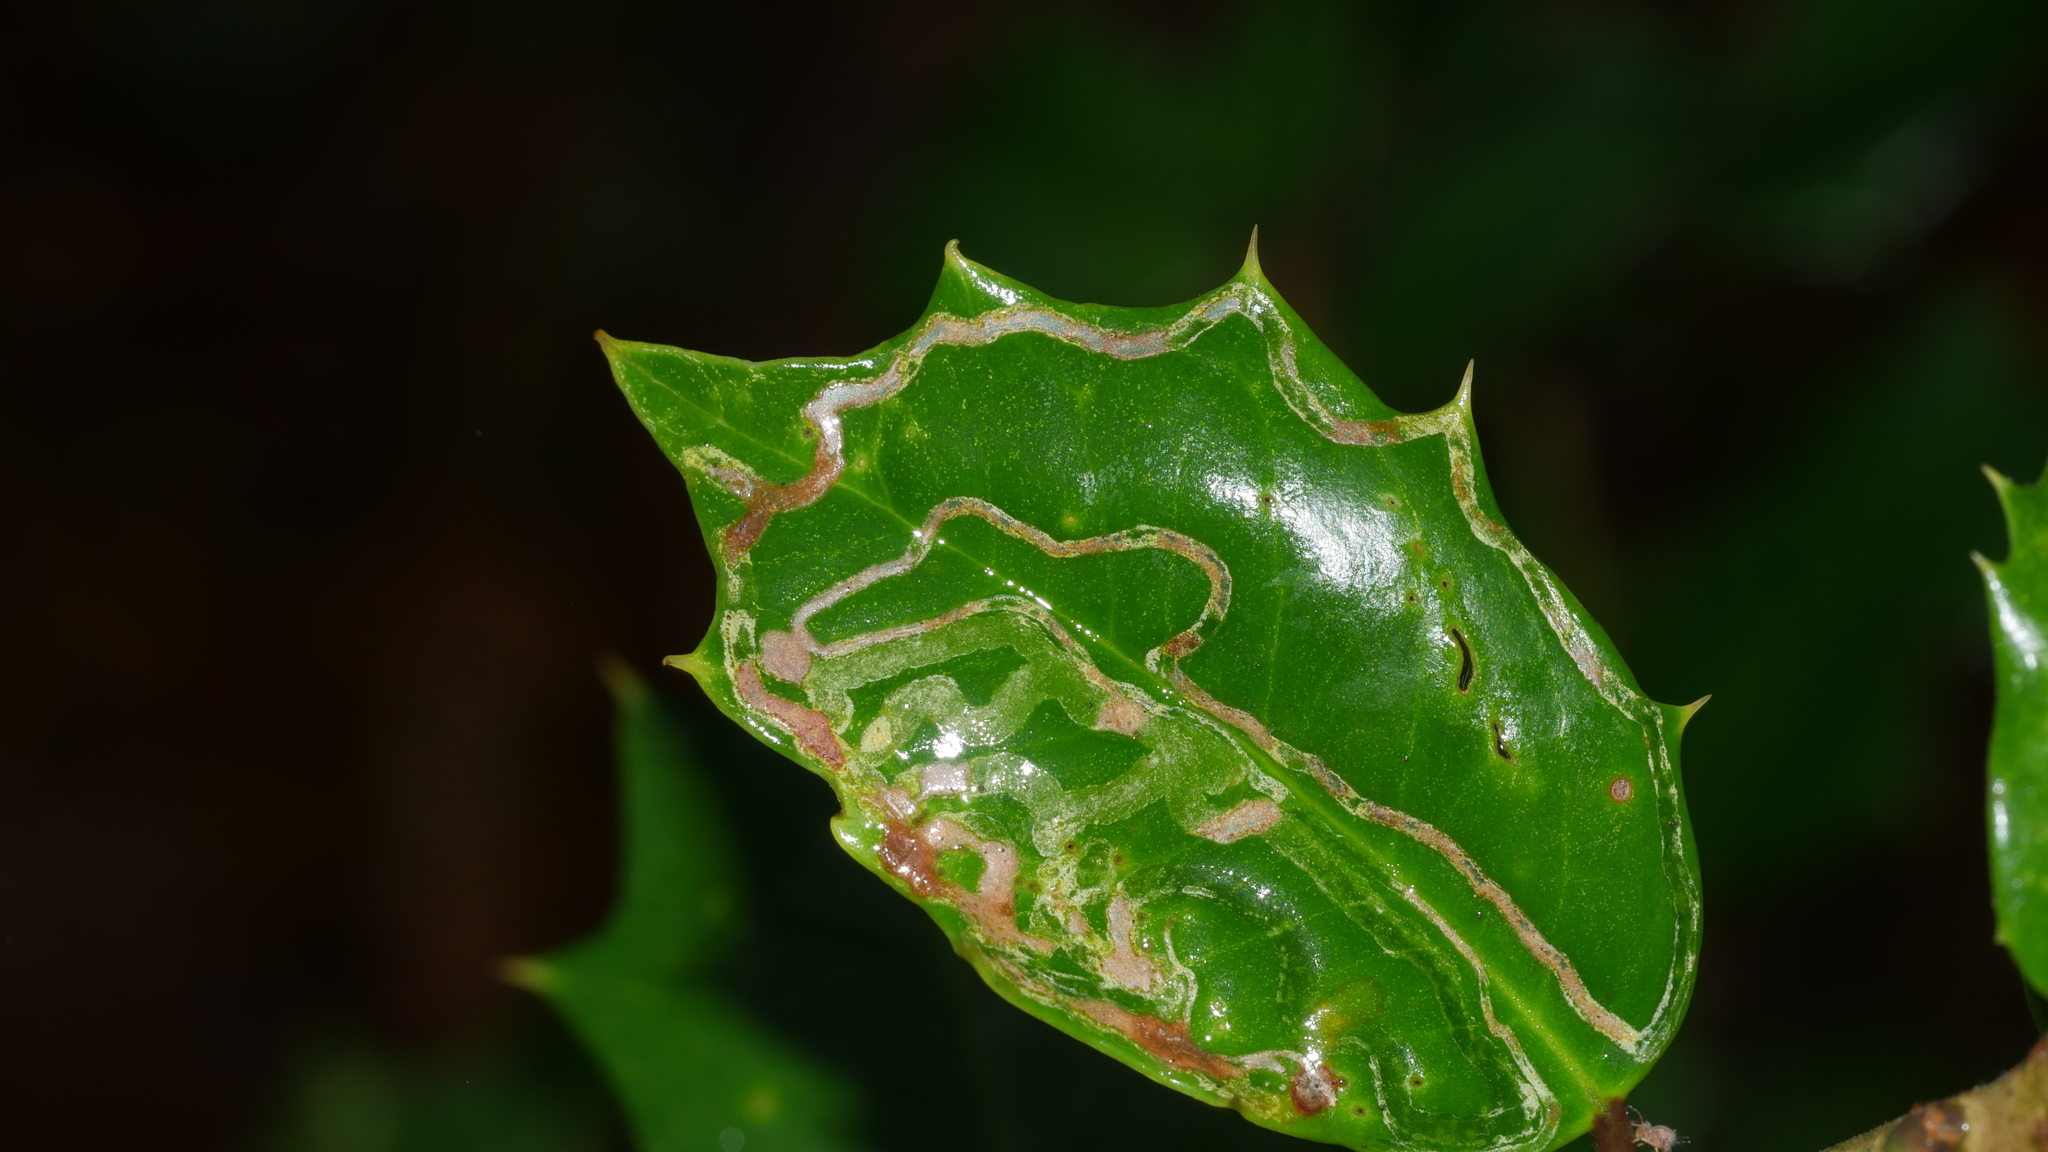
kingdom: Animalia
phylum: Arthropoda
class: Insecta
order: Diptera
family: Agromyzidae
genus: Phytomyza
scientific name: Phytomyza opacae
